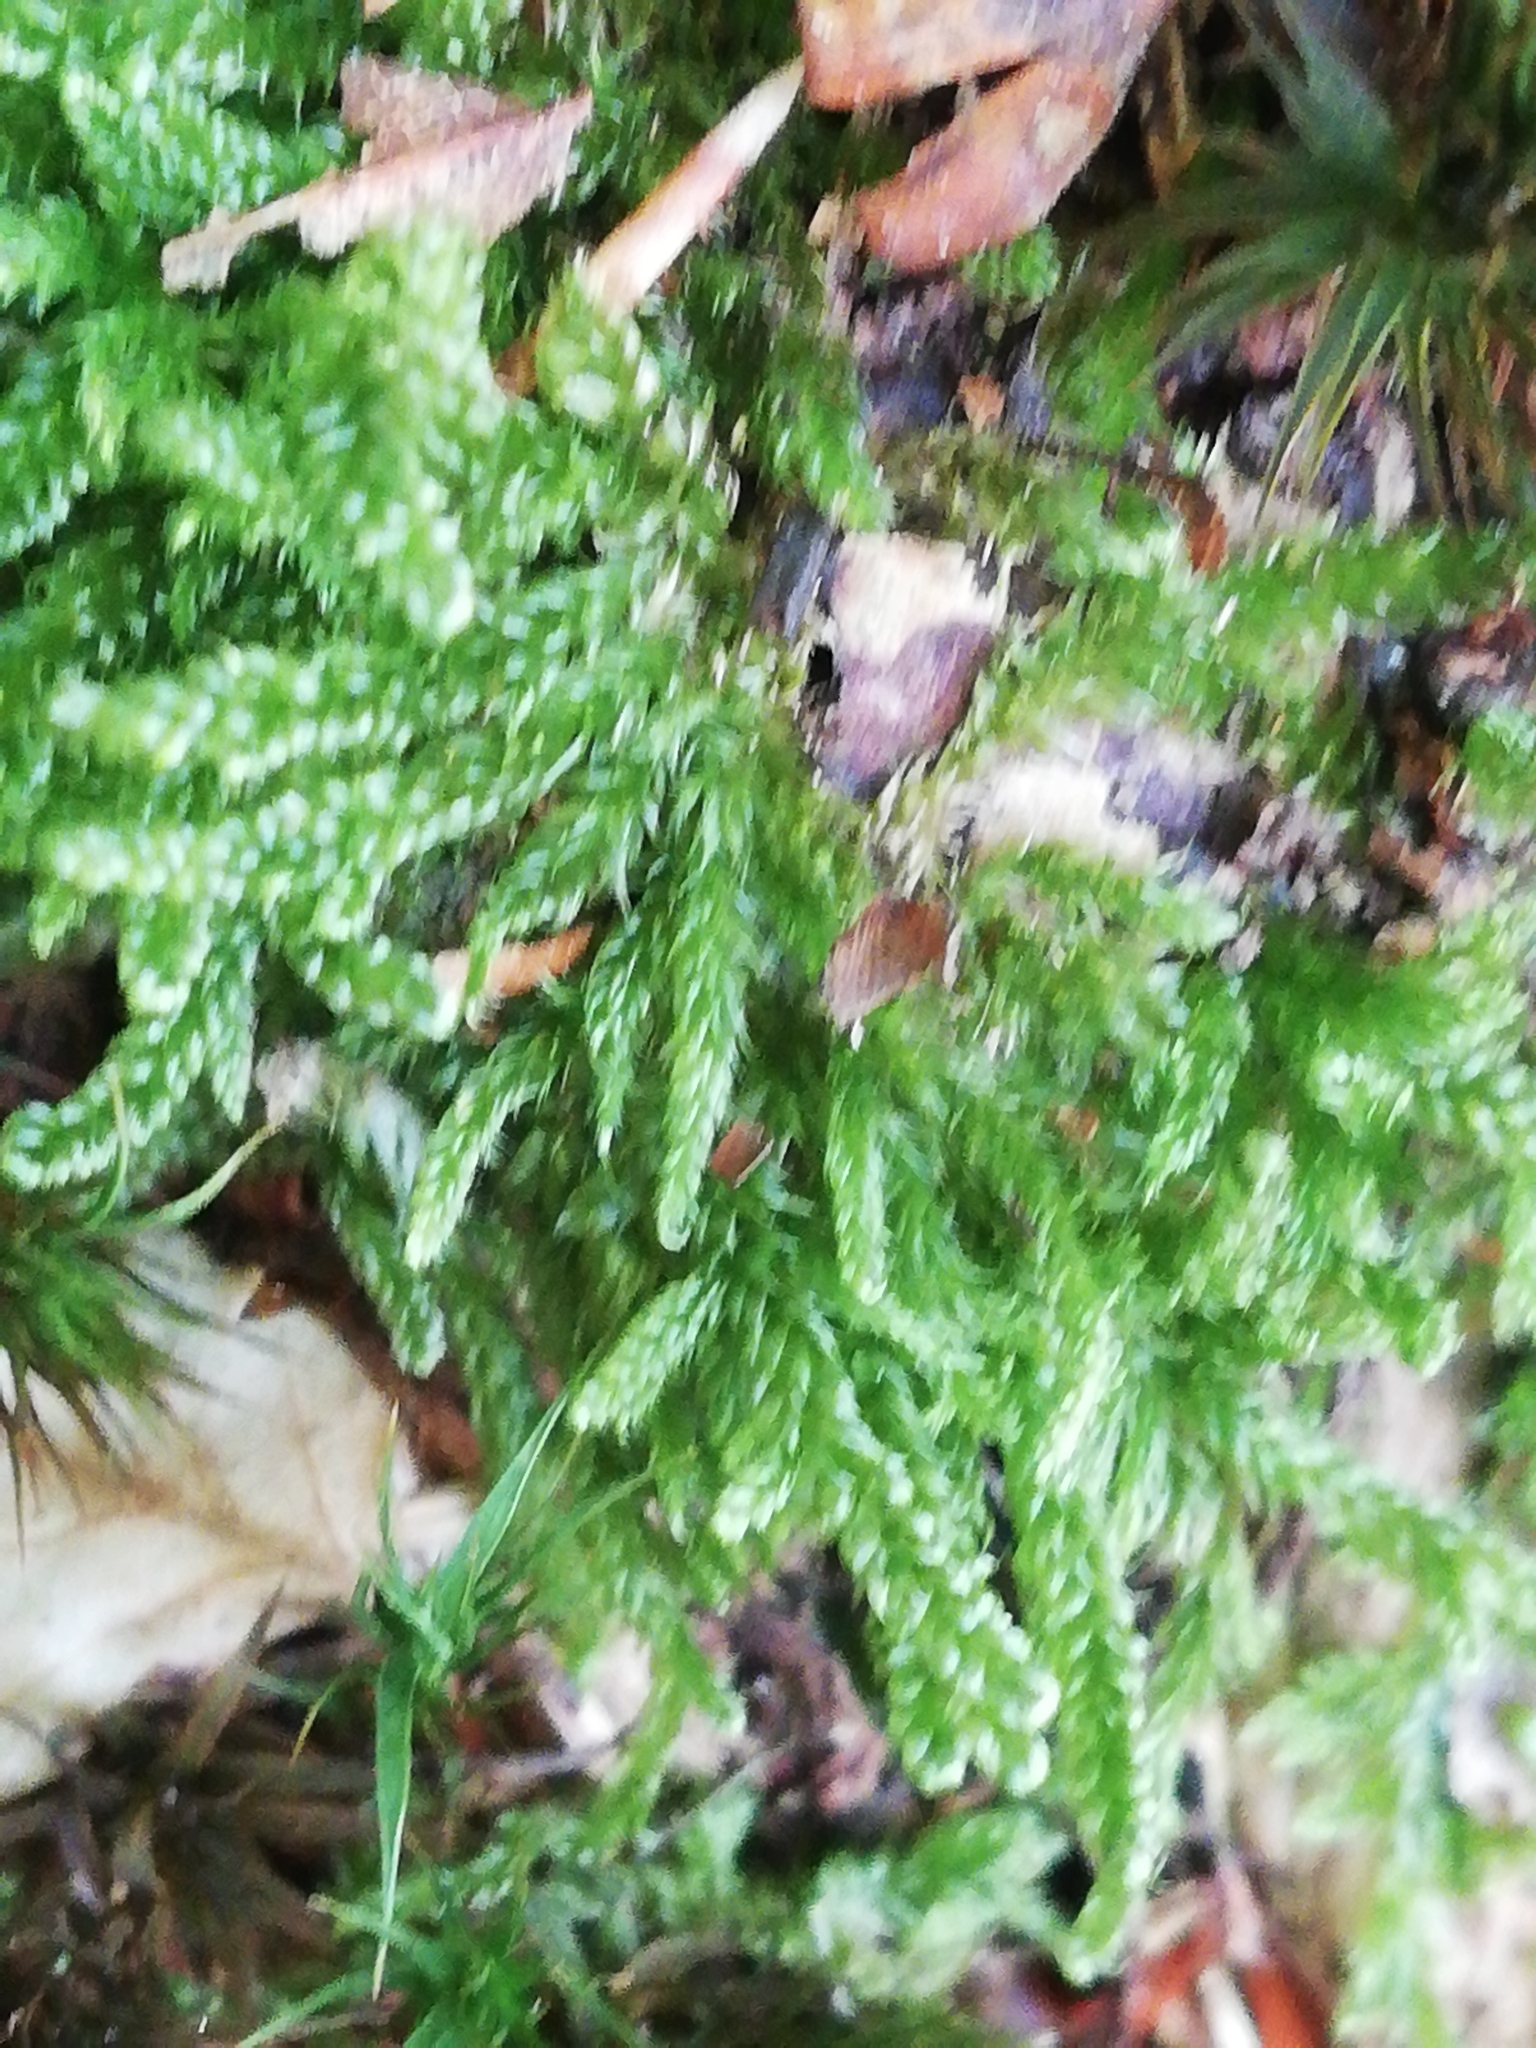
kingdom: Plantae
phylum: Bryophyta
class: Bryopsida
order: Hypnales
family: Hypnaceae
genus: Hypnum
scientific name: Hypnum cupressiforme
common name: Cypress-leaved plait-moss
